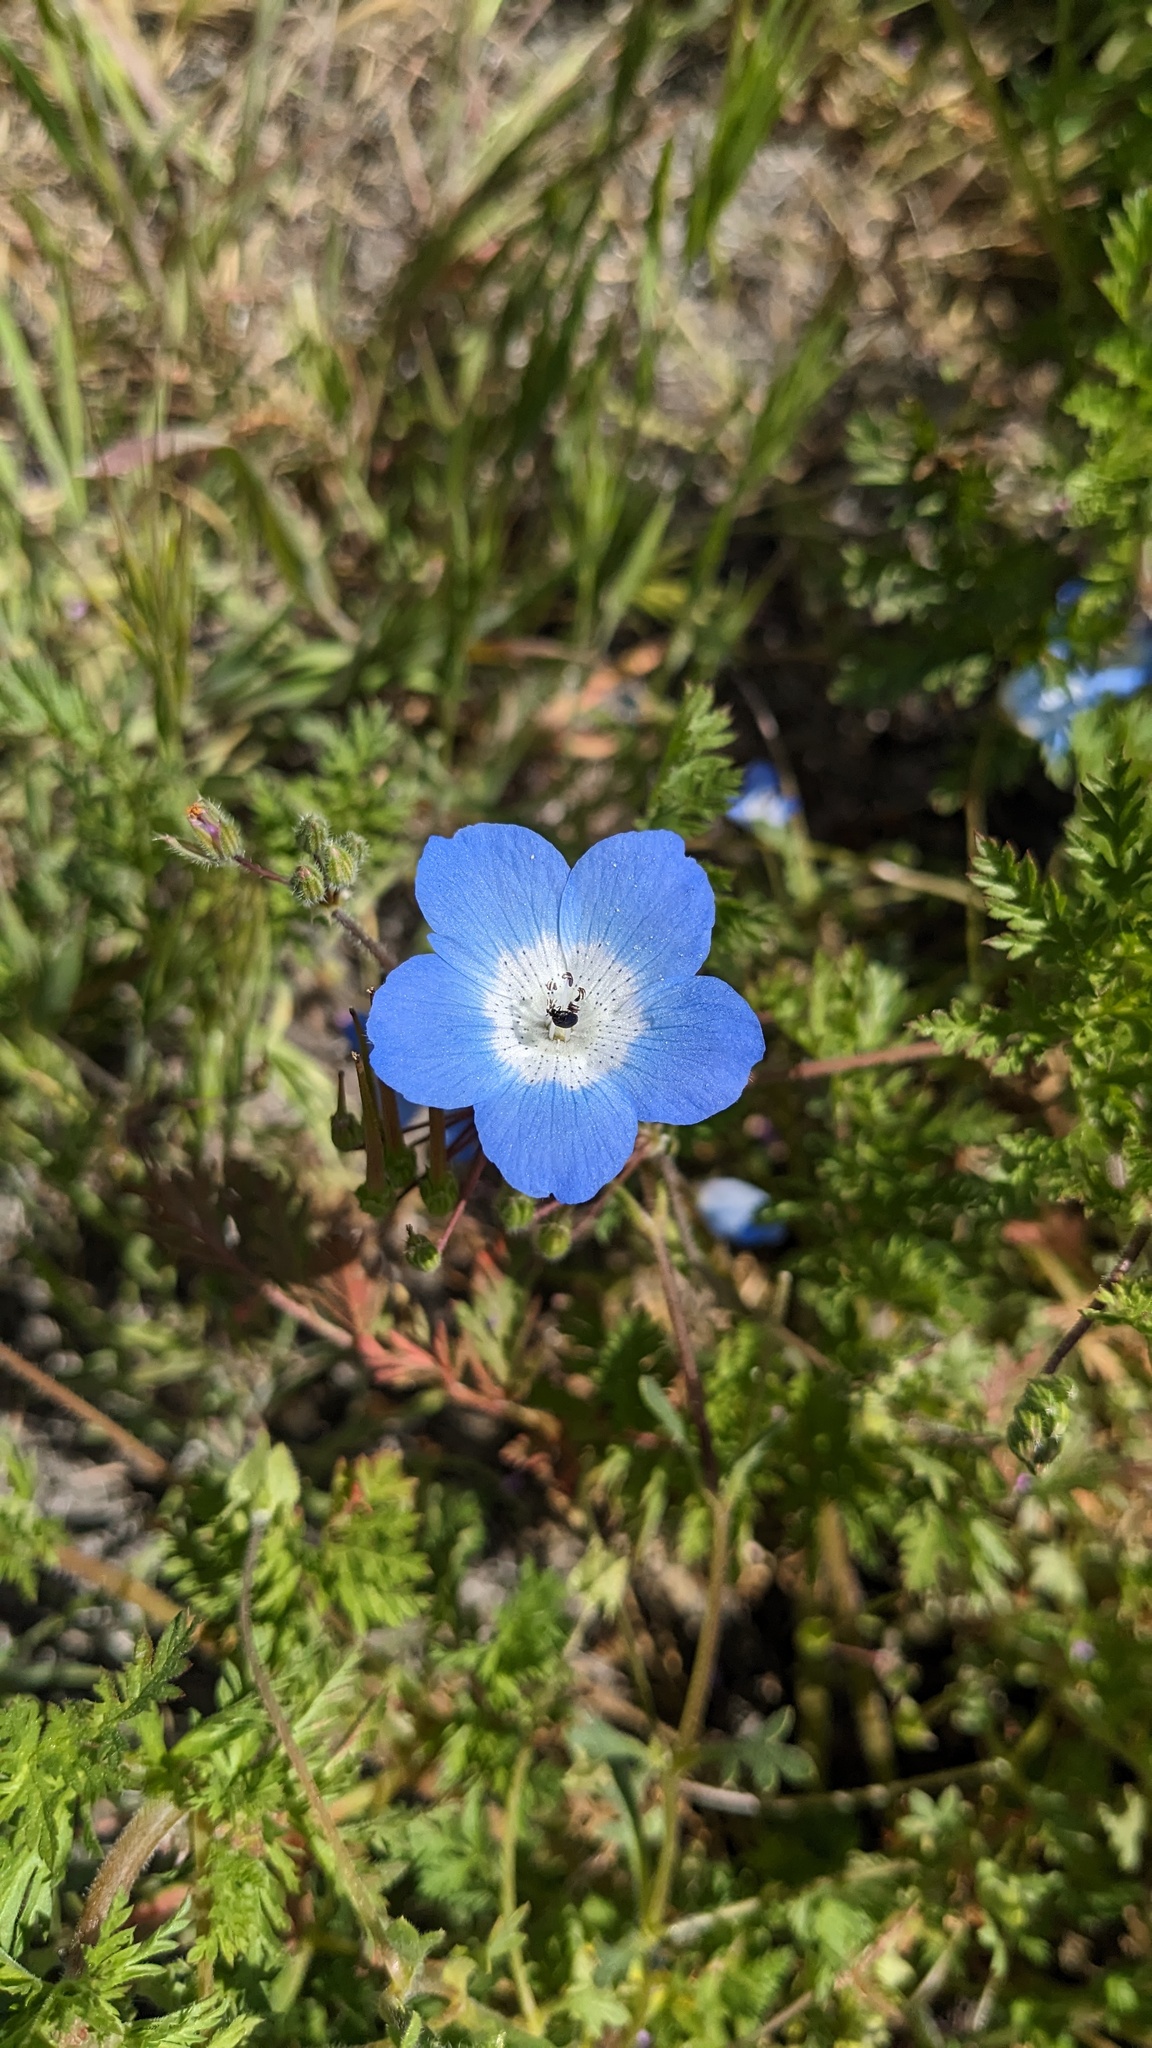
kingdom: Plantae
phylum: Tracheophyta
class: Magnoliopsida
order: Boraginales
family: Hydrophyllaceae
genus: Nemophila
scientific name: Nemophila menziesii
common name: Baby's-blue-eyes
